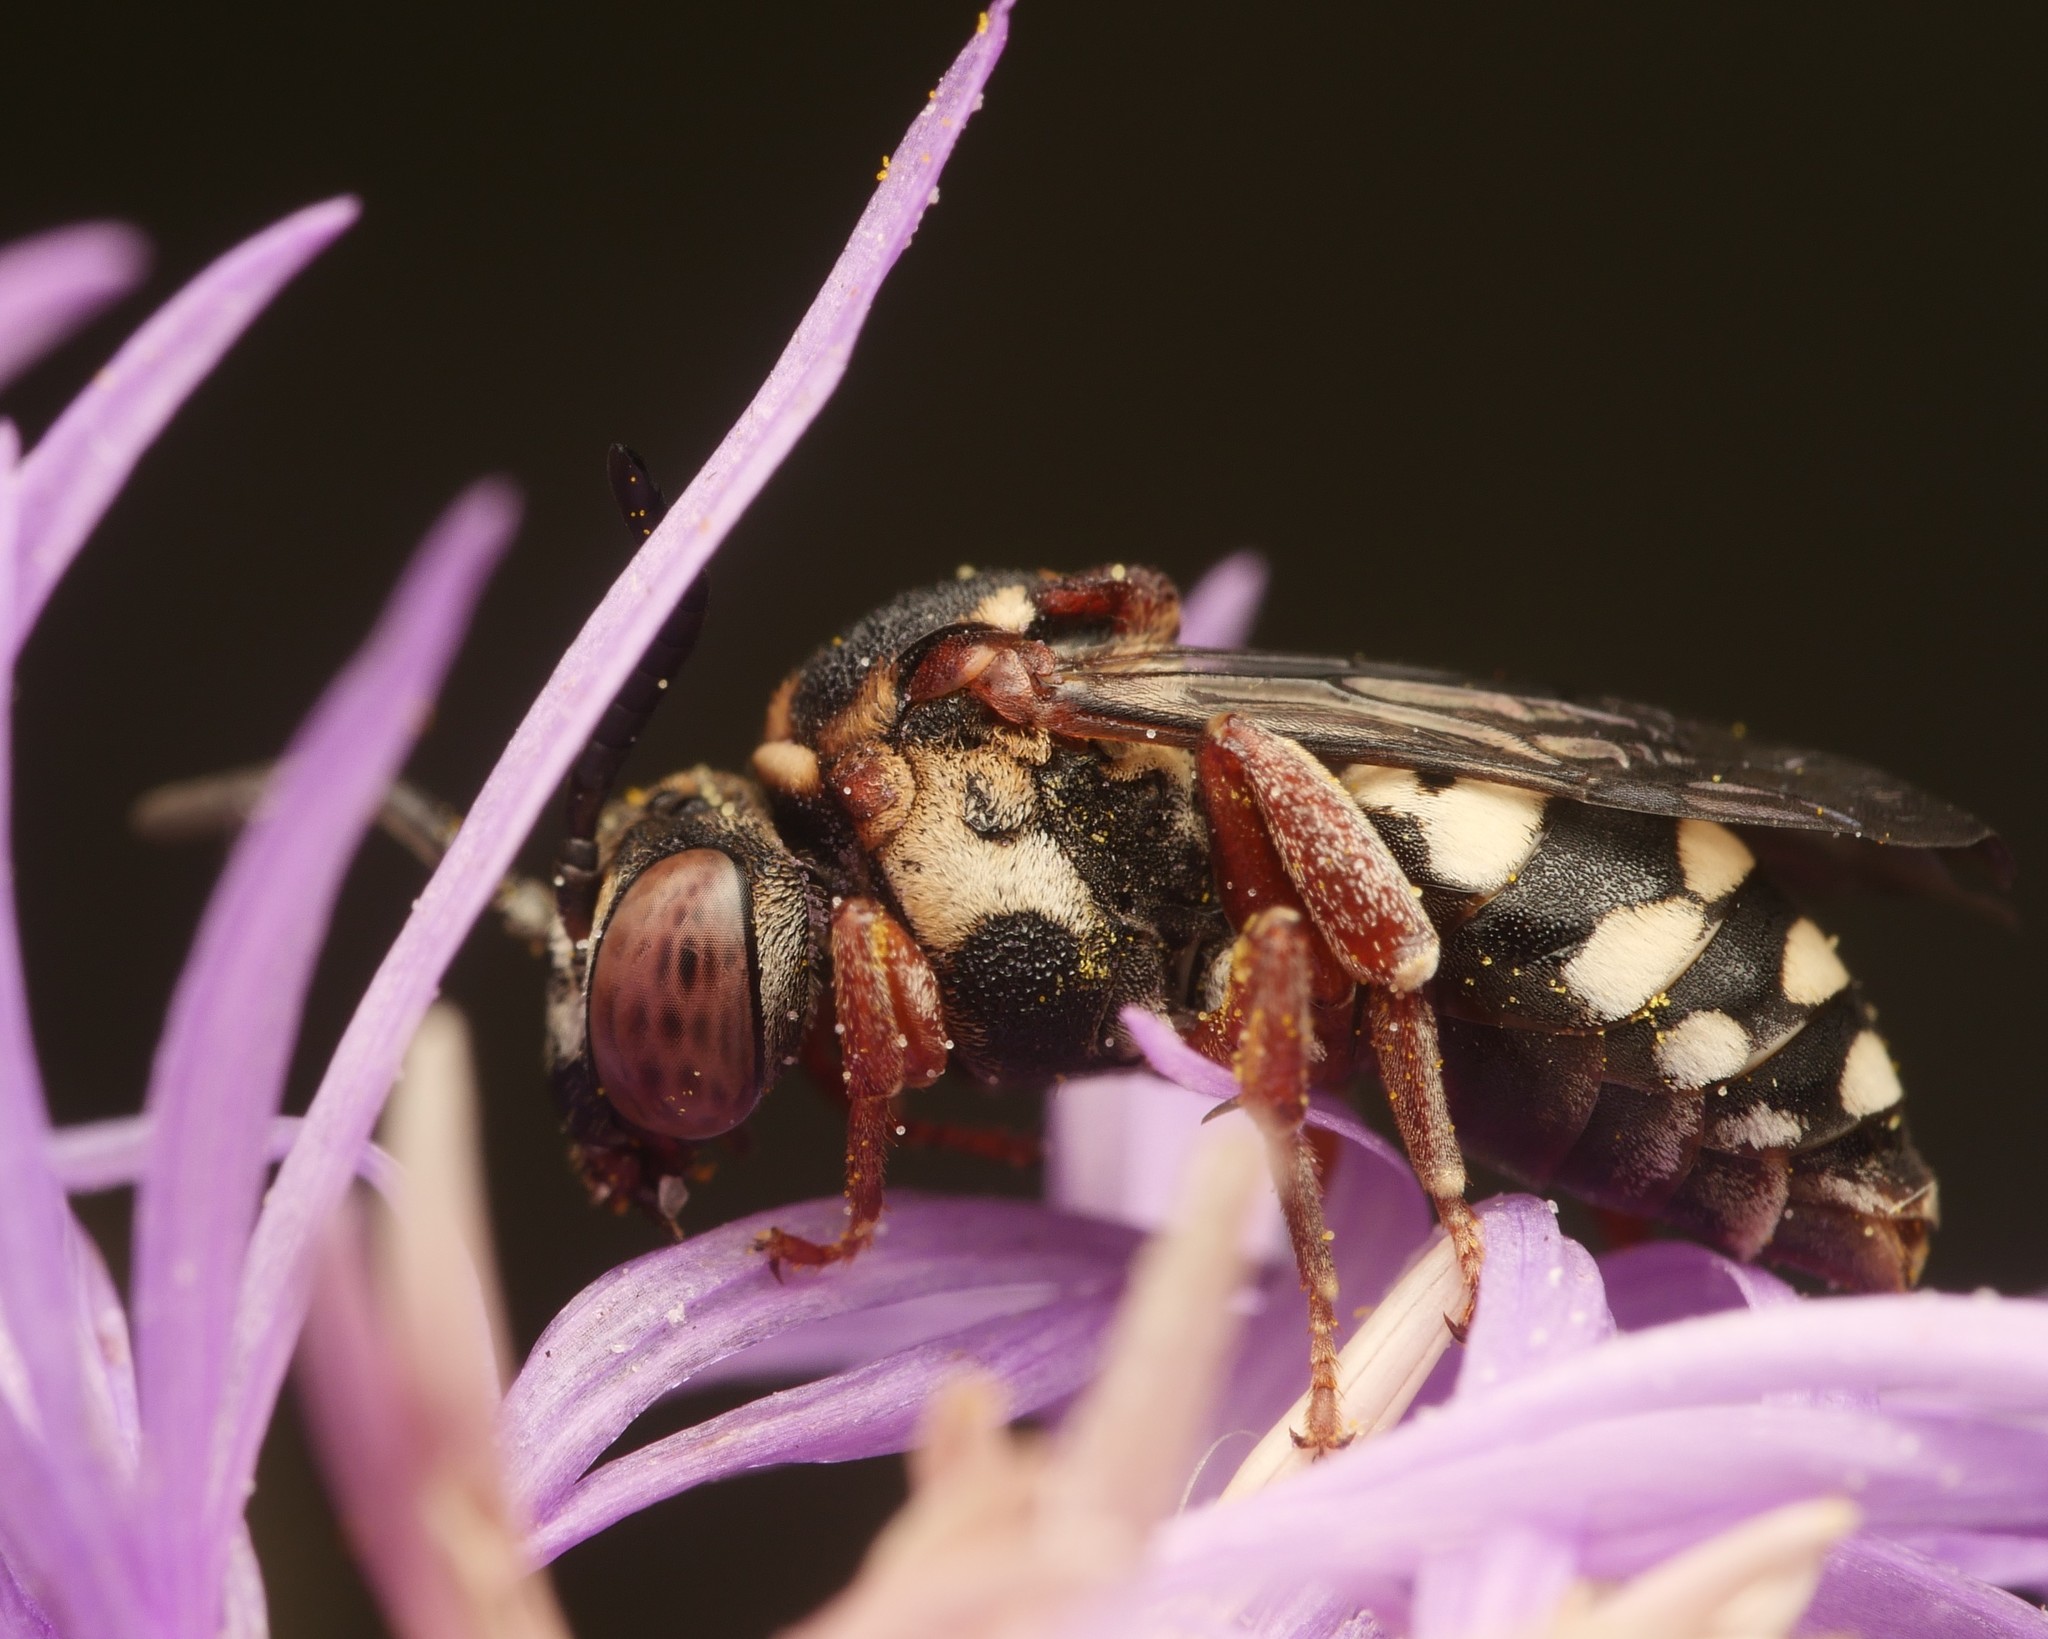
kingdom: Animalia
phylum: Arthropoda
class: Insecta
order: Hymenoptera
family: Apidae
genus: Epeolus
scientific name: Epeolus variegatus
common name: Black-thighed epeolus
